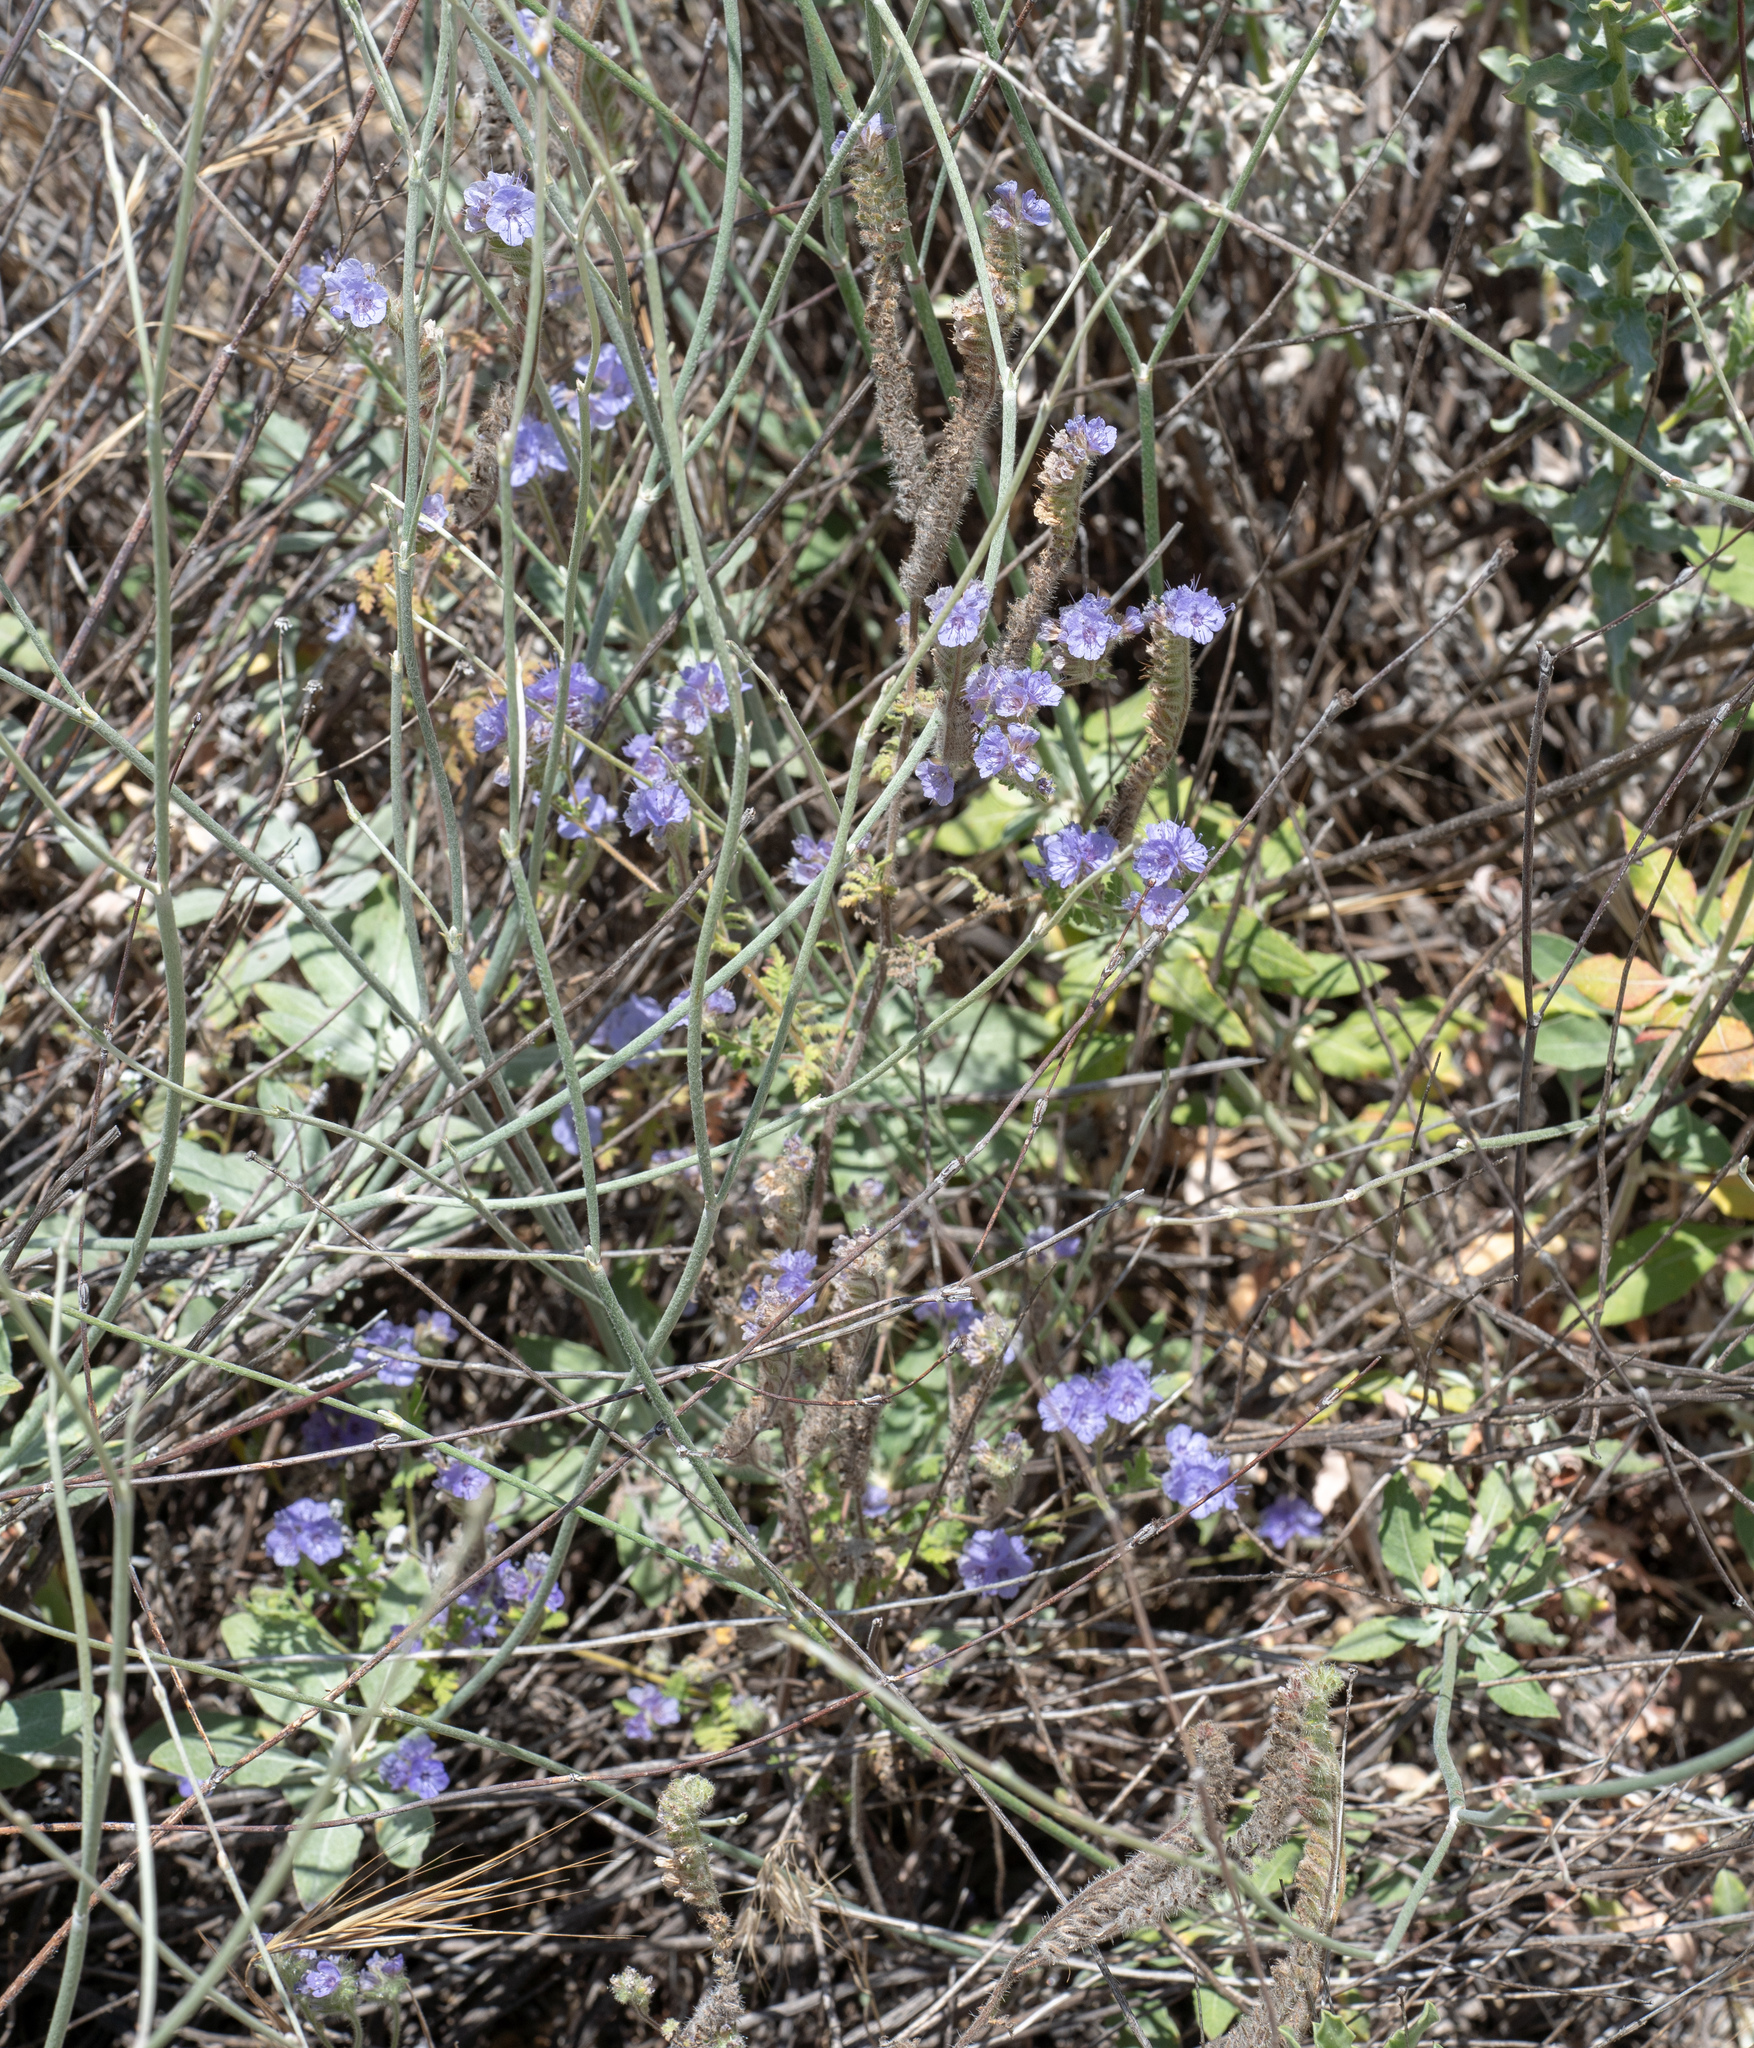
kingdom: Plantae
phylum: Tracheophyta
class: Magnoliopsida
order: Boraginales
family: Hydrophyllaceae
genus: Phacelia
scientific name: Phacelia distans
